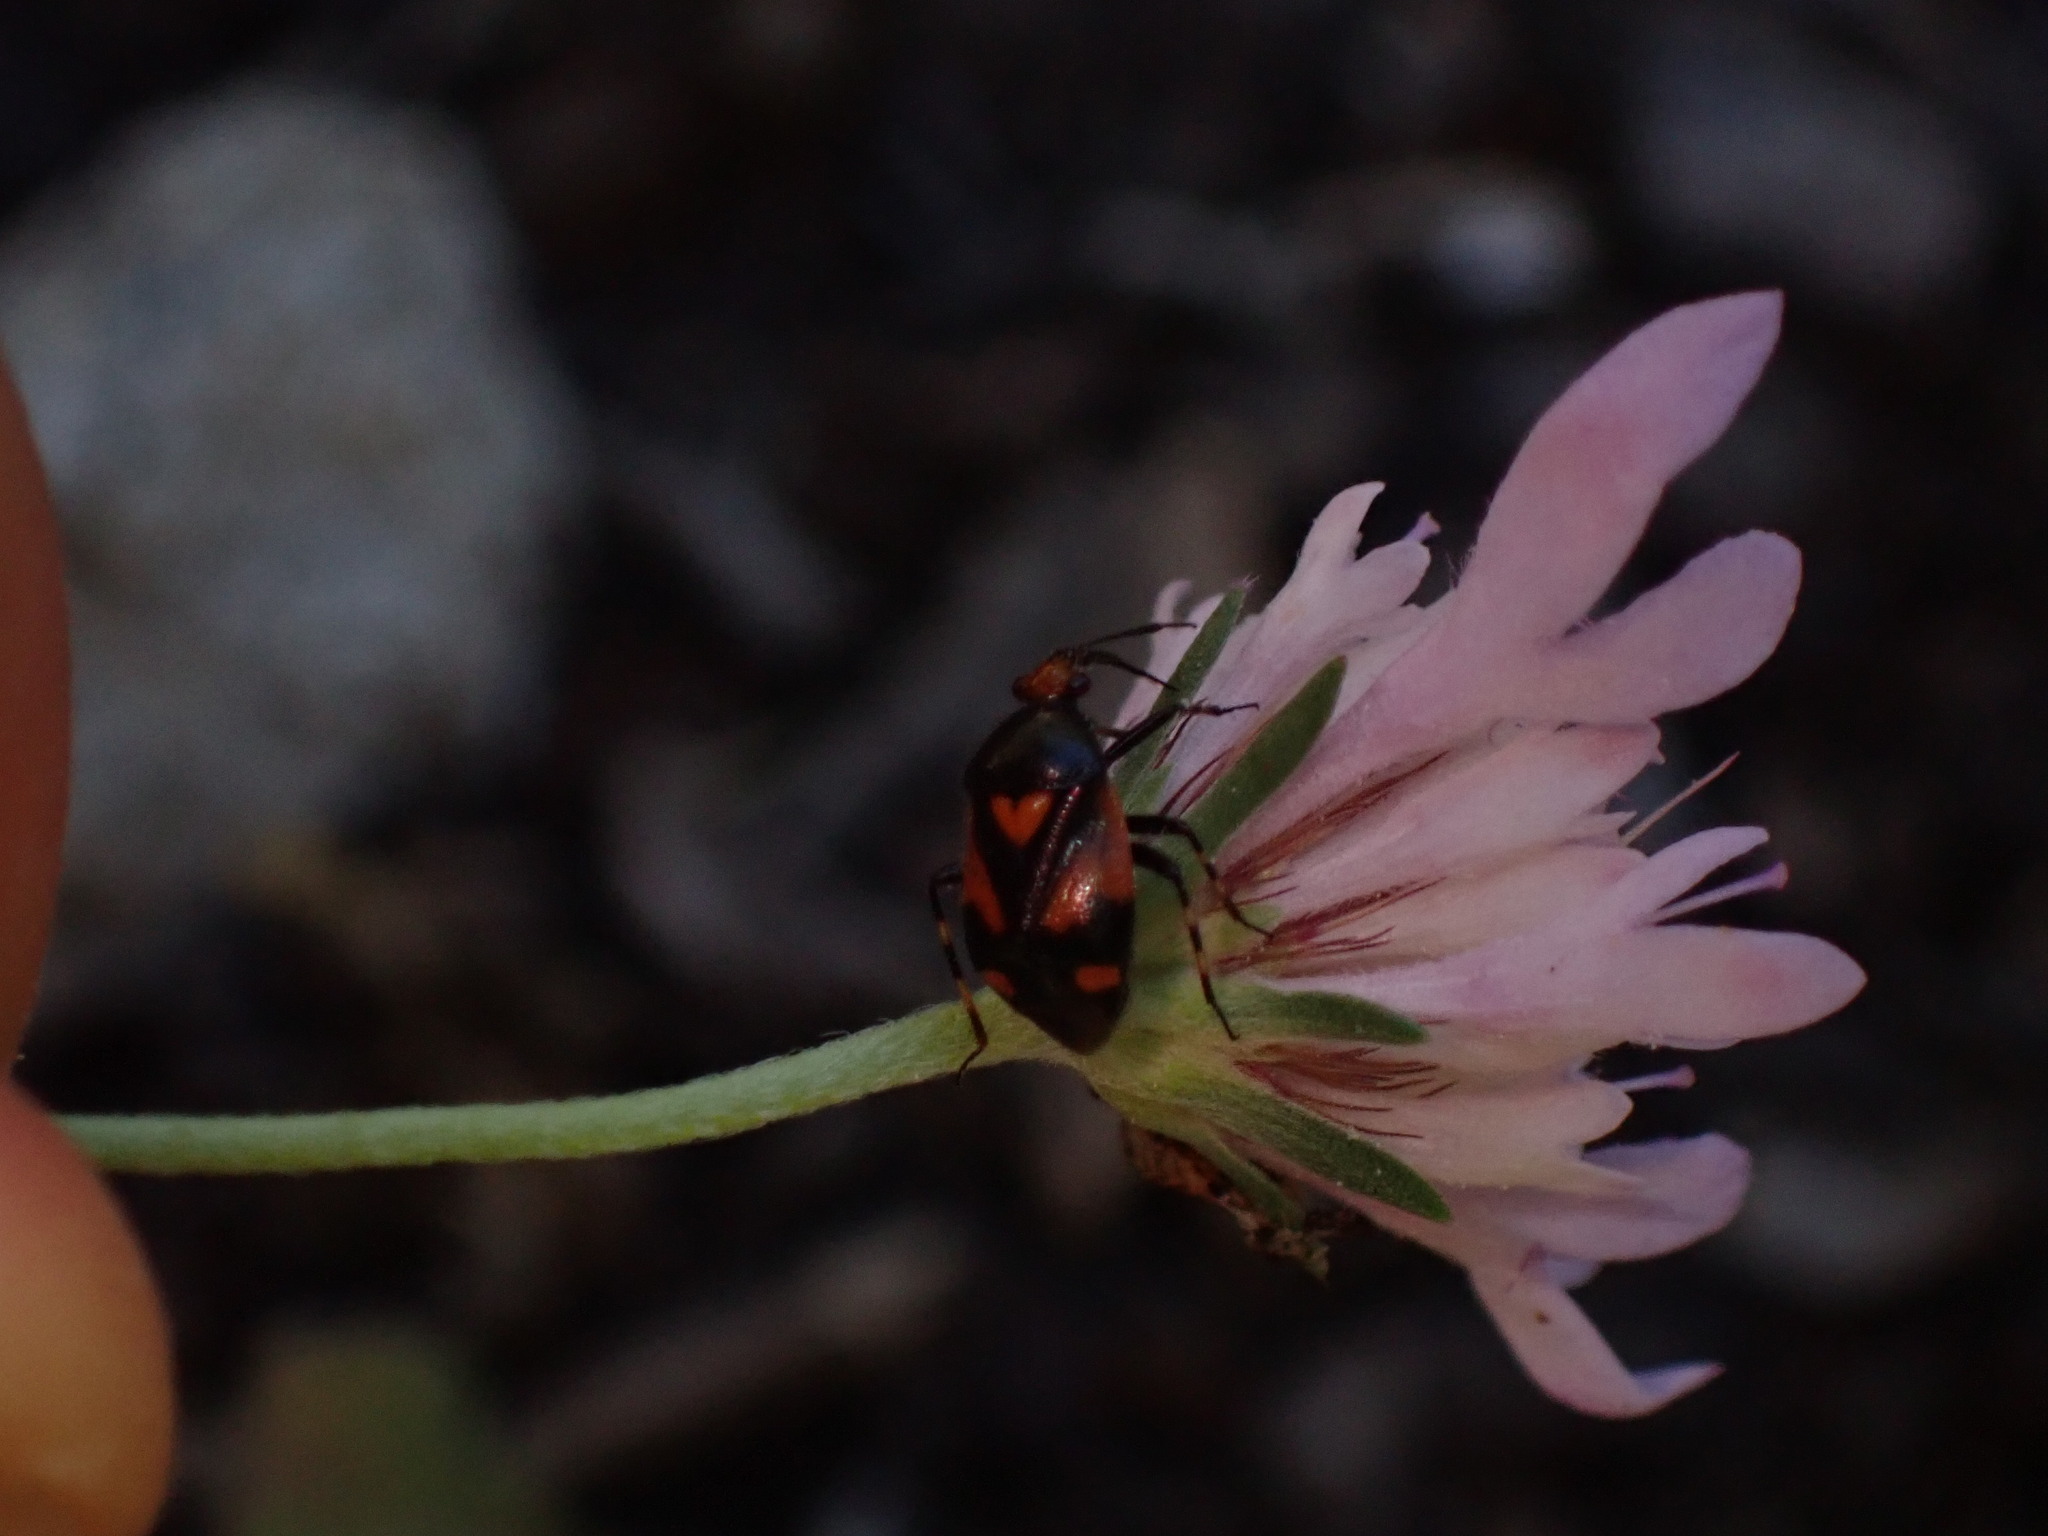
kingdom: Animalia
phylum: Arthropoda
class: Insecta
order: Hemiptera
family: Miridae
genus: Deraeocoris
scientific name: Deraeocoris schach
